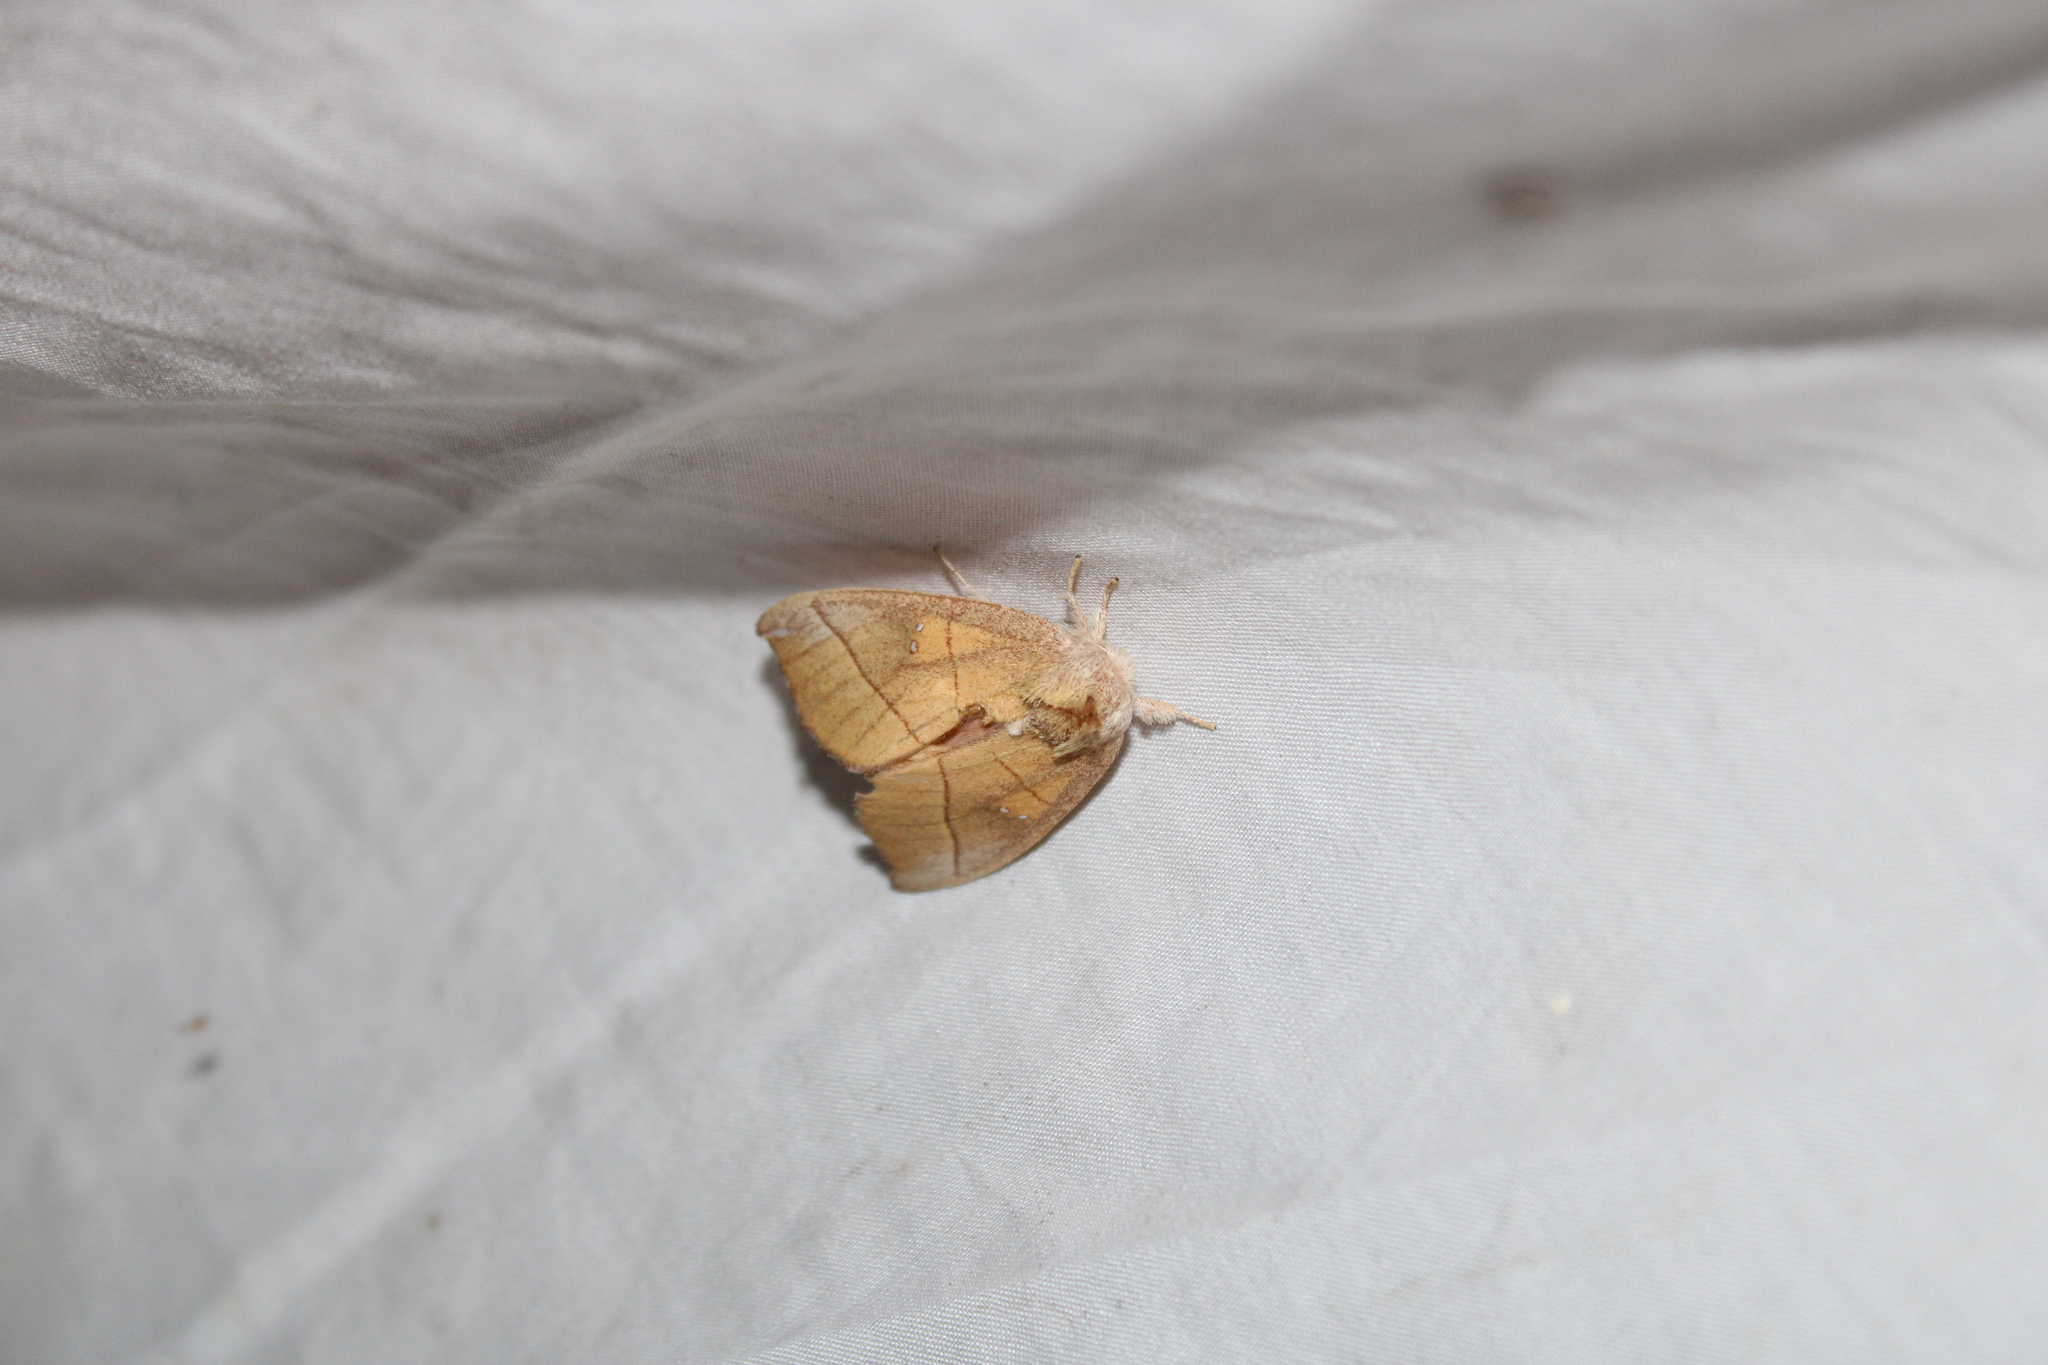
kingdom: Animalia
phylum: Arthropoda
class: Insecta
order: Lepidoptera
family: Notodontidae
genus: Nadata
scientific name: Nadata gibbosa
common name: White-dotted prominent
